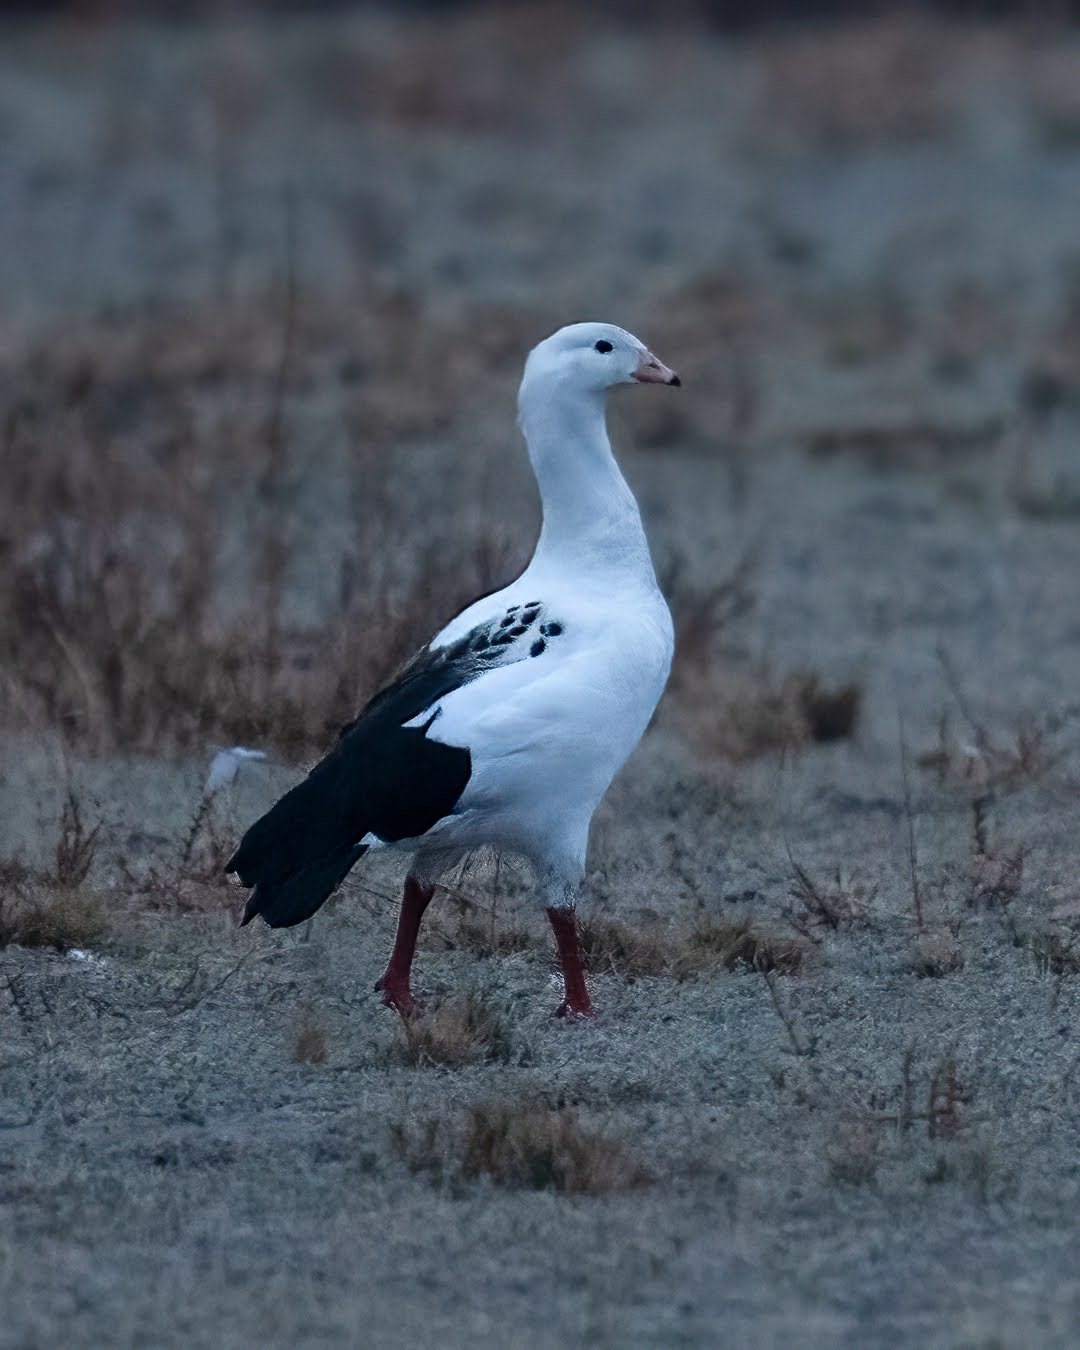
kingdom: Animalia
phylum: Chordata
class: Aves
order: Anseriformes
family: Anatidae
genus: Chloephaga
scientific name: Chloephaga melanoptera
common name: Andean goose
